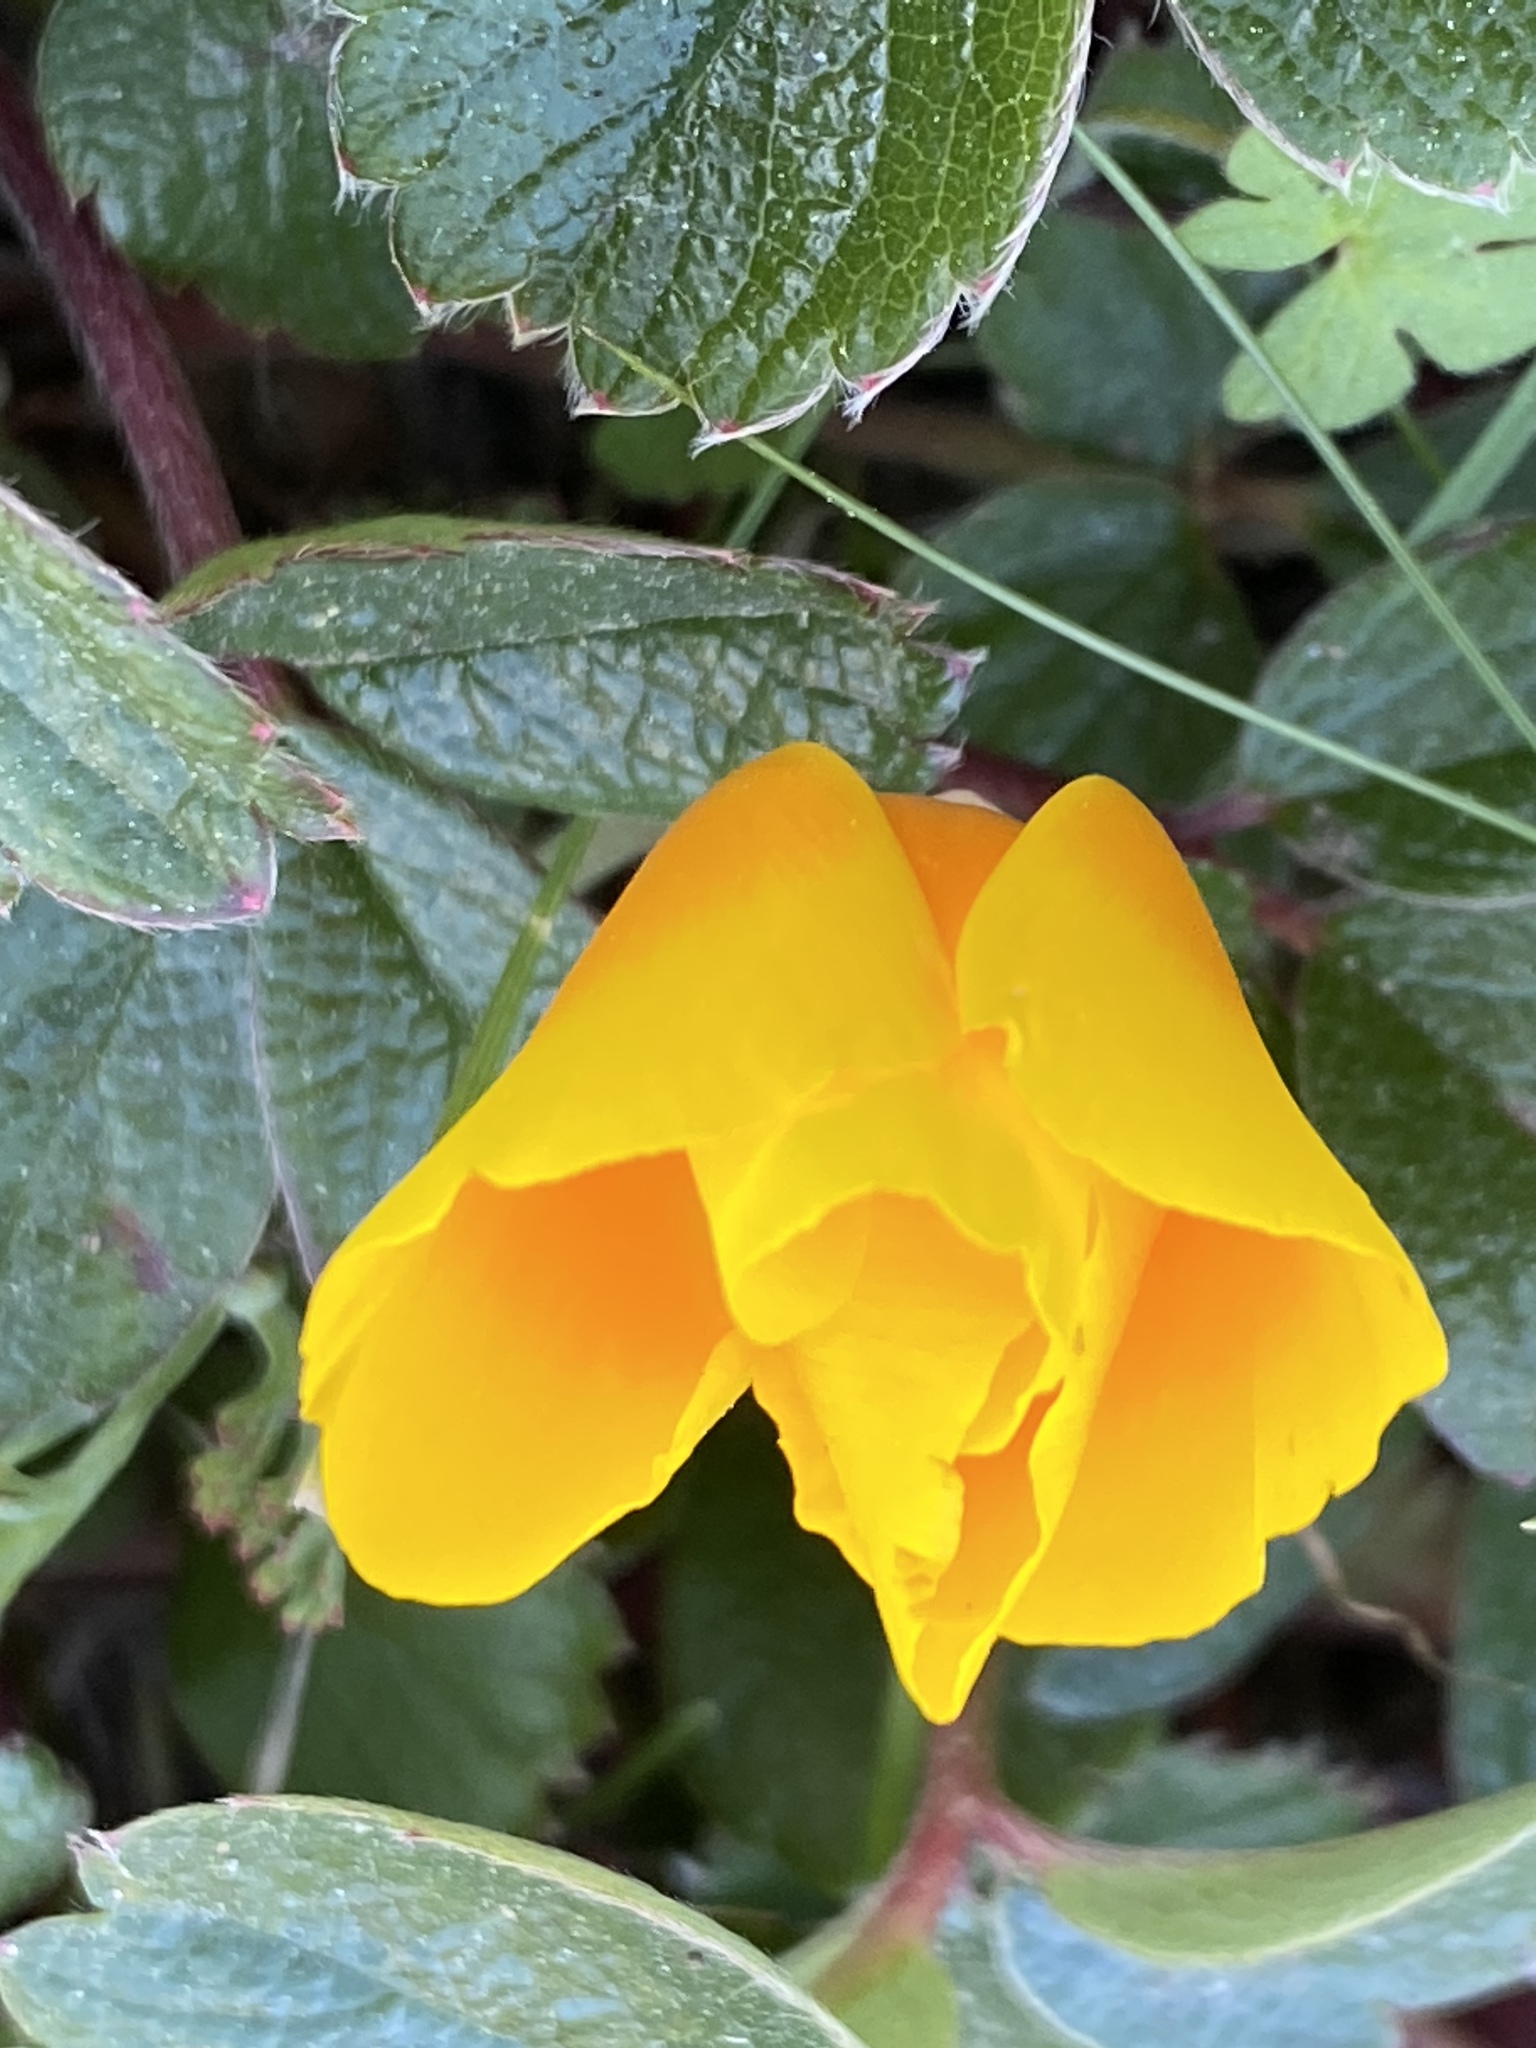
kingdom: Plantae
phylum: Tracheophyta
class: Magnoliopsida
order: Ranunculales
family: Papaveraceae
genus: Eschscholzia
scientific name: Eschscholzia californica
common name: California poppy
